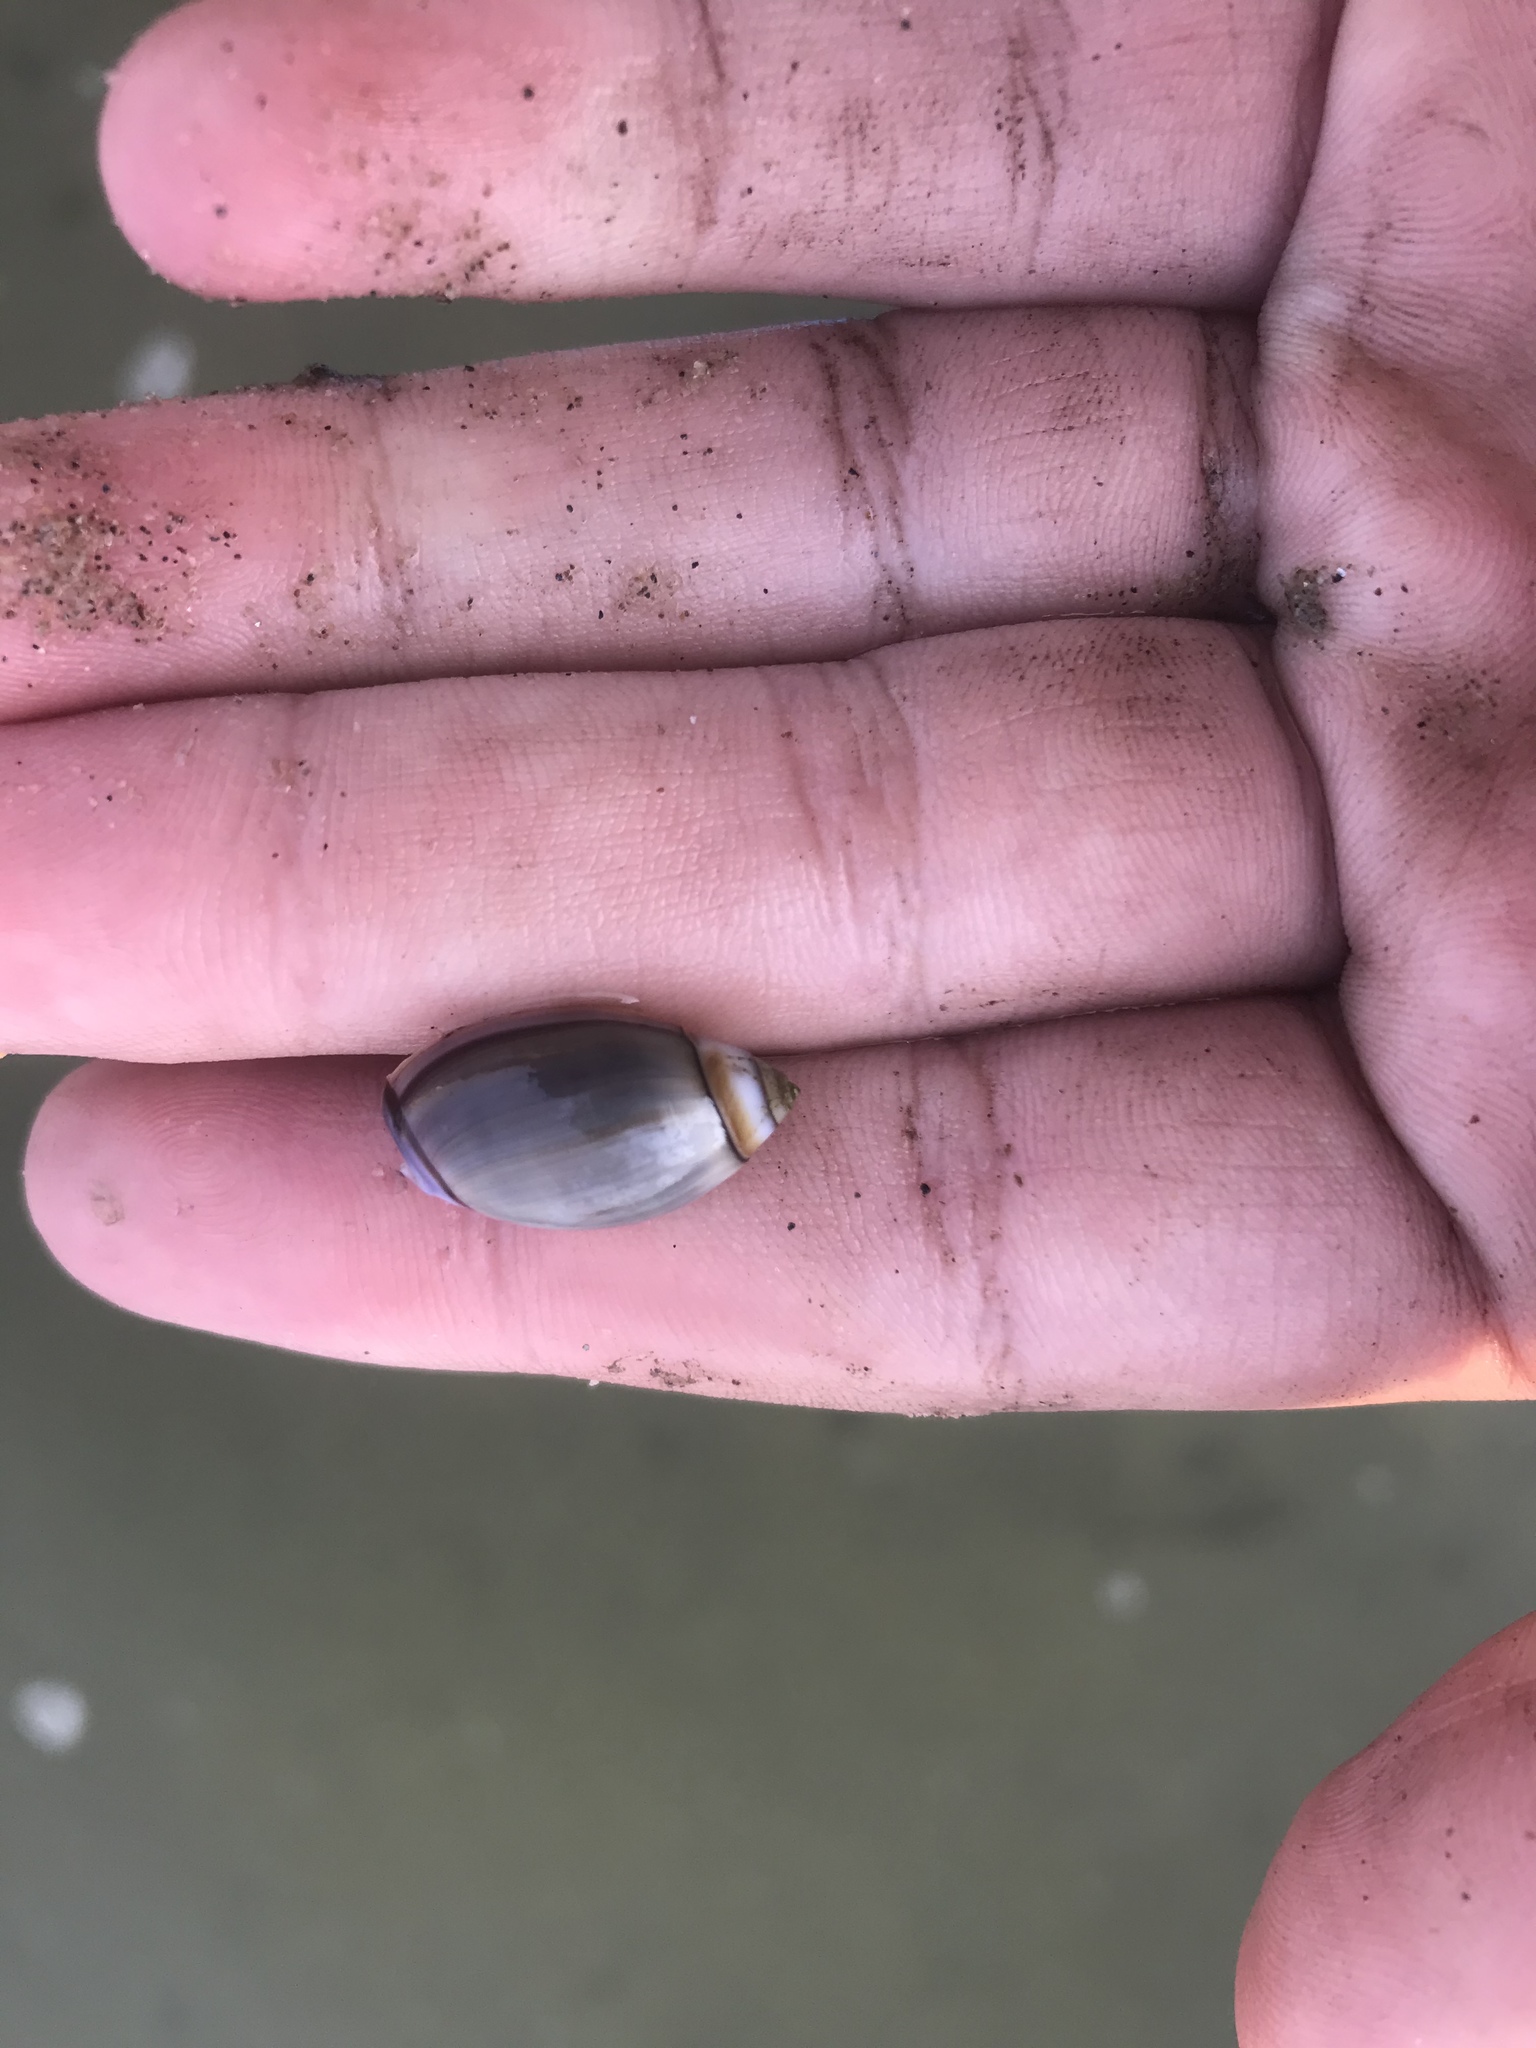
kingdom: Animalia
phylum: Mollusca
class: Gastropoda
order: Neogastropoda
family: Olividae
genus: Callianax
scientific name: Callianax biplicata
